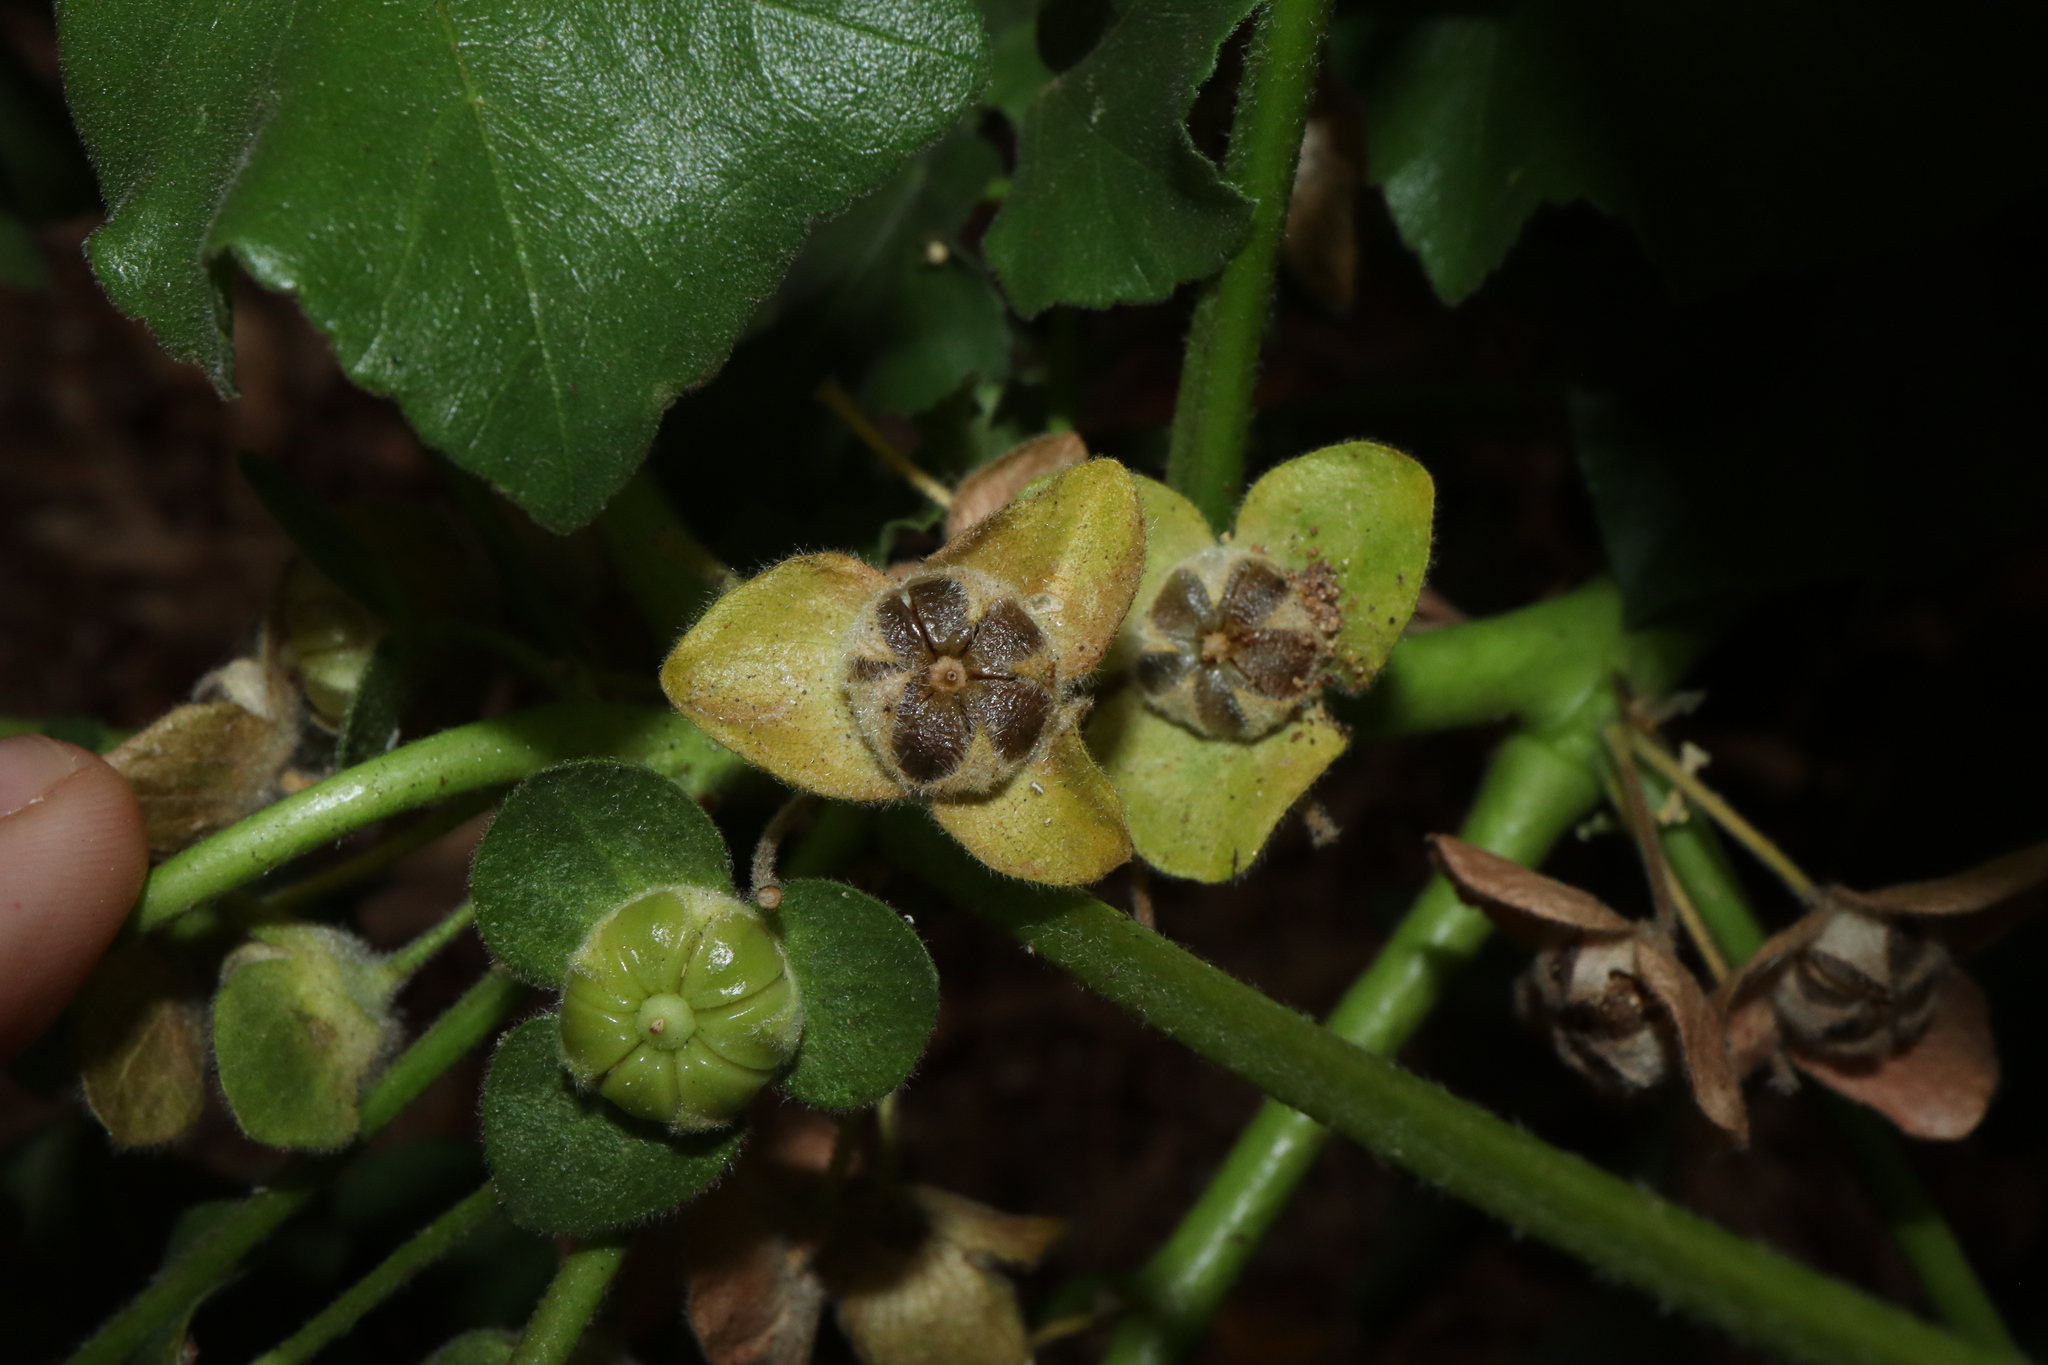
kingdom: Plantae
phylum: Tracheophyta
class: Magnoliopsida
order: Malvales
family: Malvaceae
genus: Malva
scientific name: Malva arborea
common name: Tree mallow
